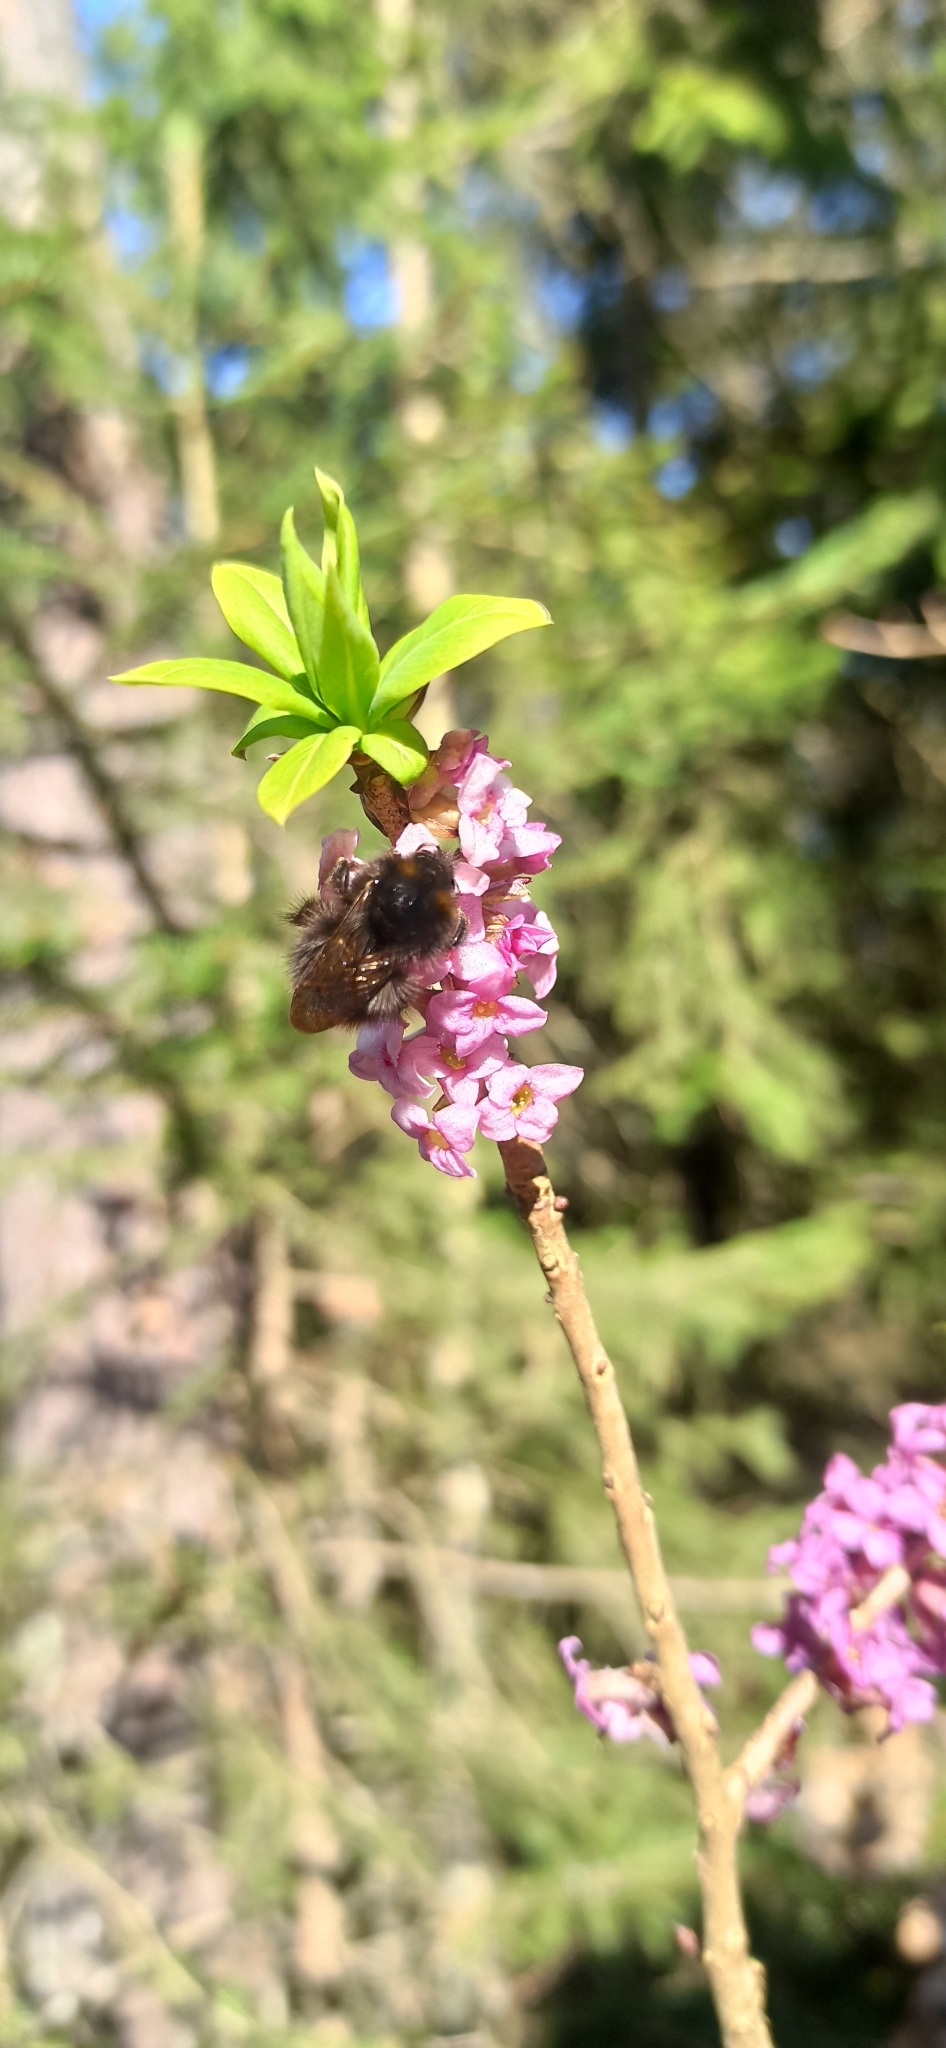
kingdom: Plantae
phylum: Tracheophyta
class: Magnoliopsida
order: Malvales
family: Thymelaeaceae
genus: Daphne
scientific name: Daphne mezereum
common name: Mezereon
